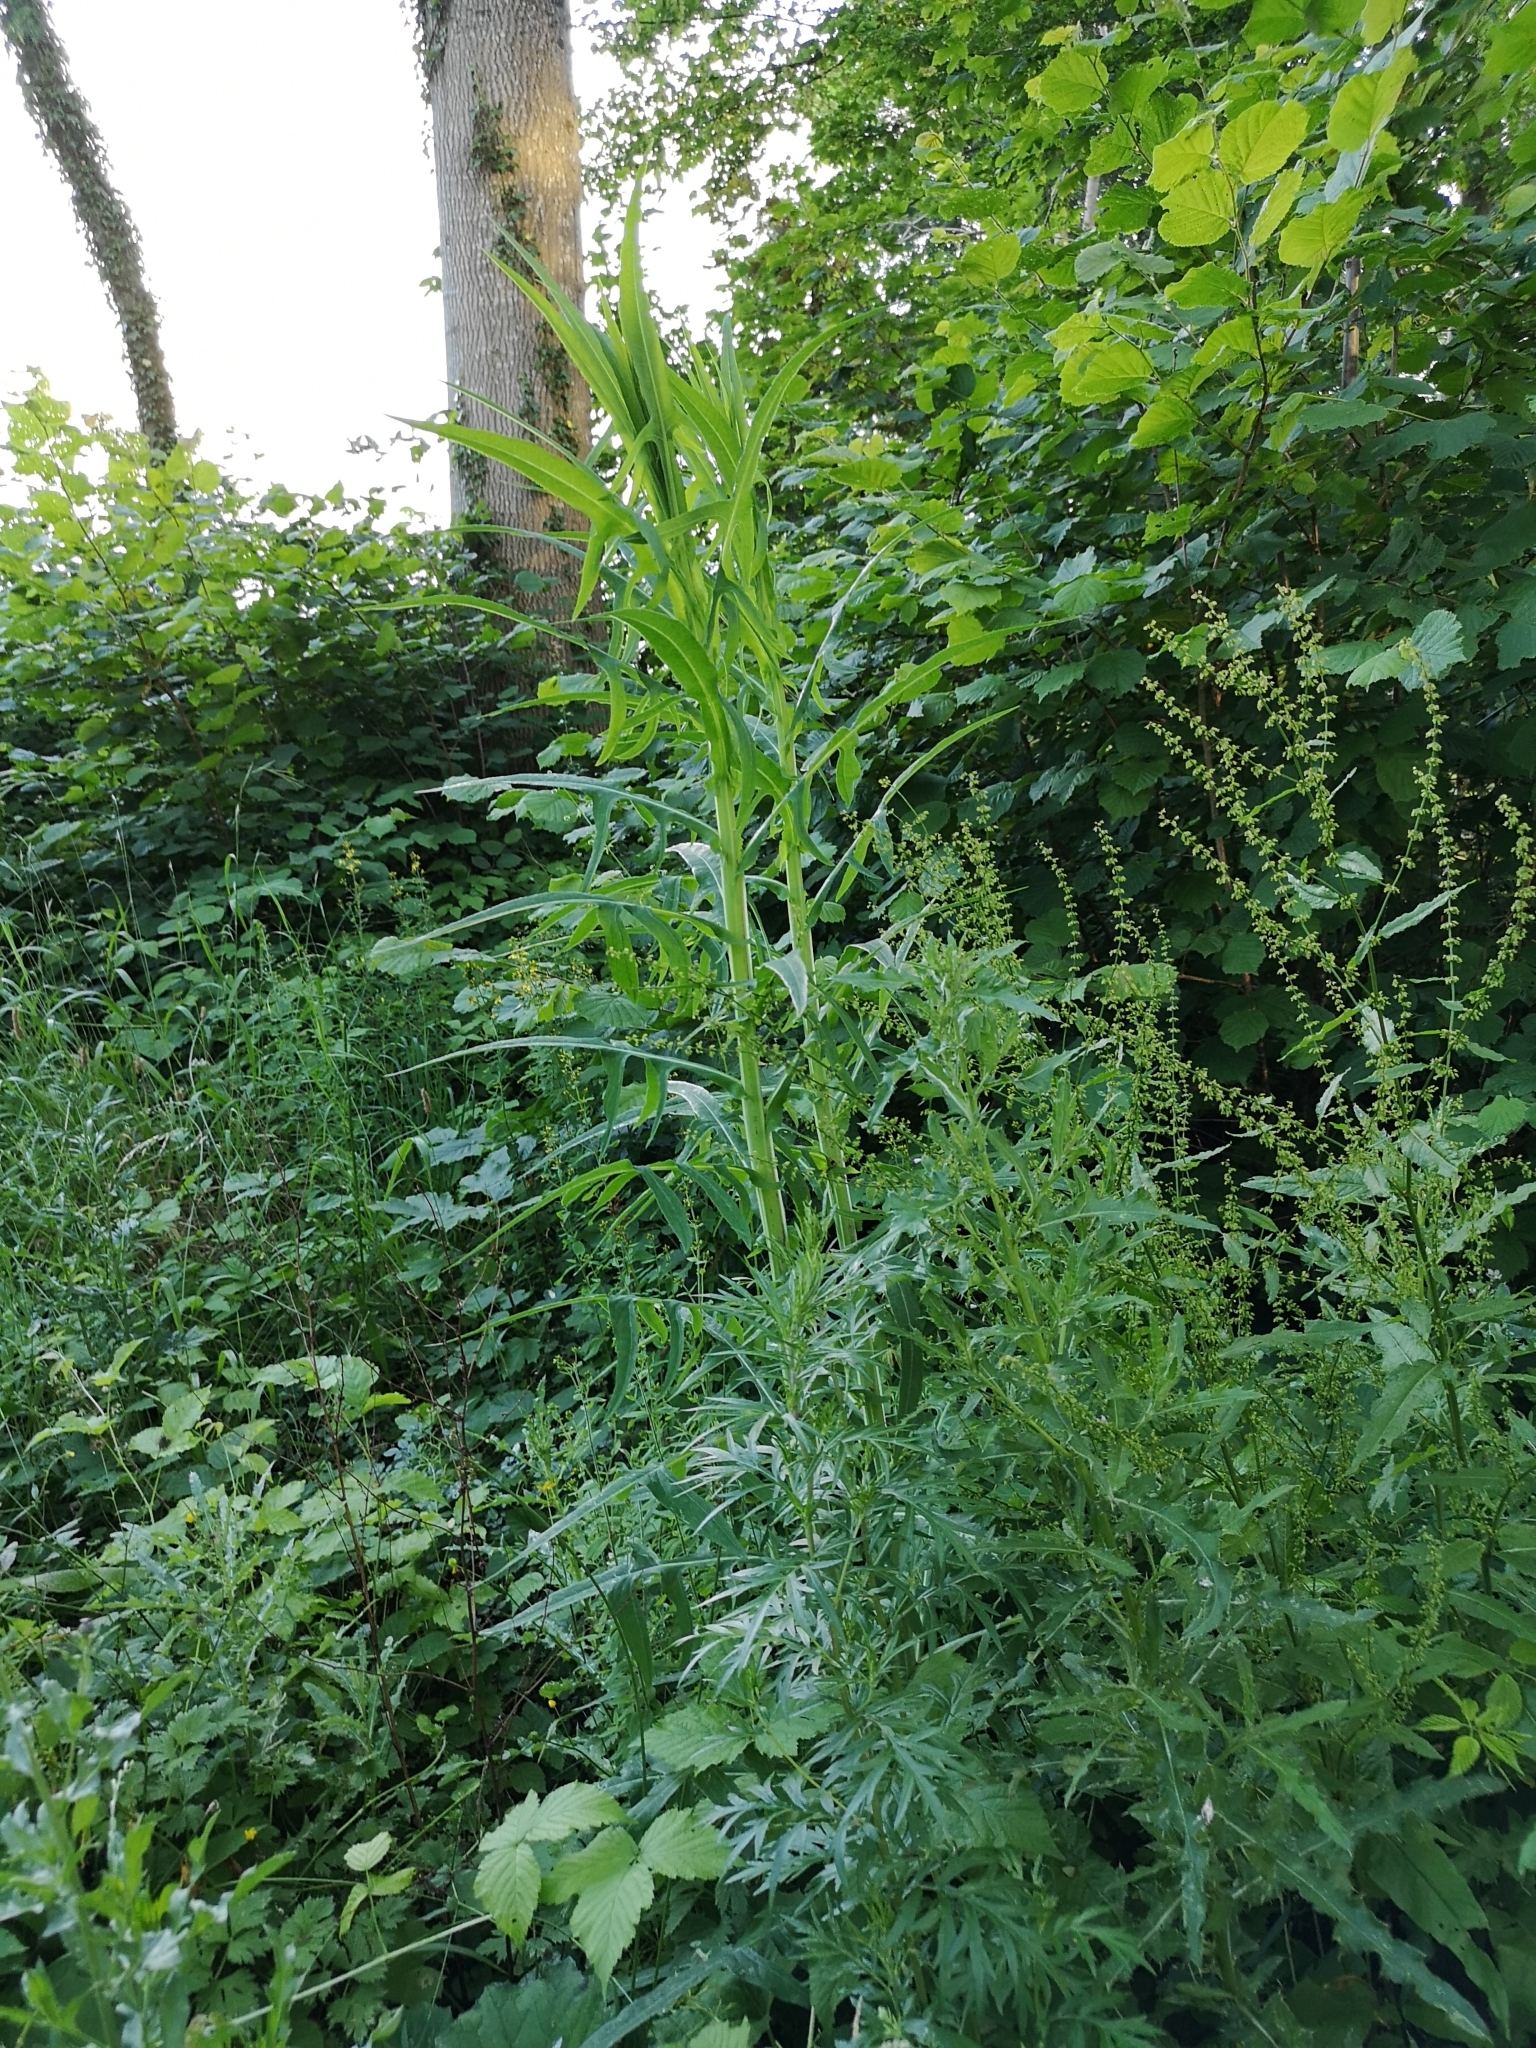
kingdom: Plantae
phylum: Tracheophyta
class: Magnoliopsida
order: Asterales
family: Asteraceae
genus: Sonchus
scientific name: Sonchus palustris
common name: Marsh sow-thistle
